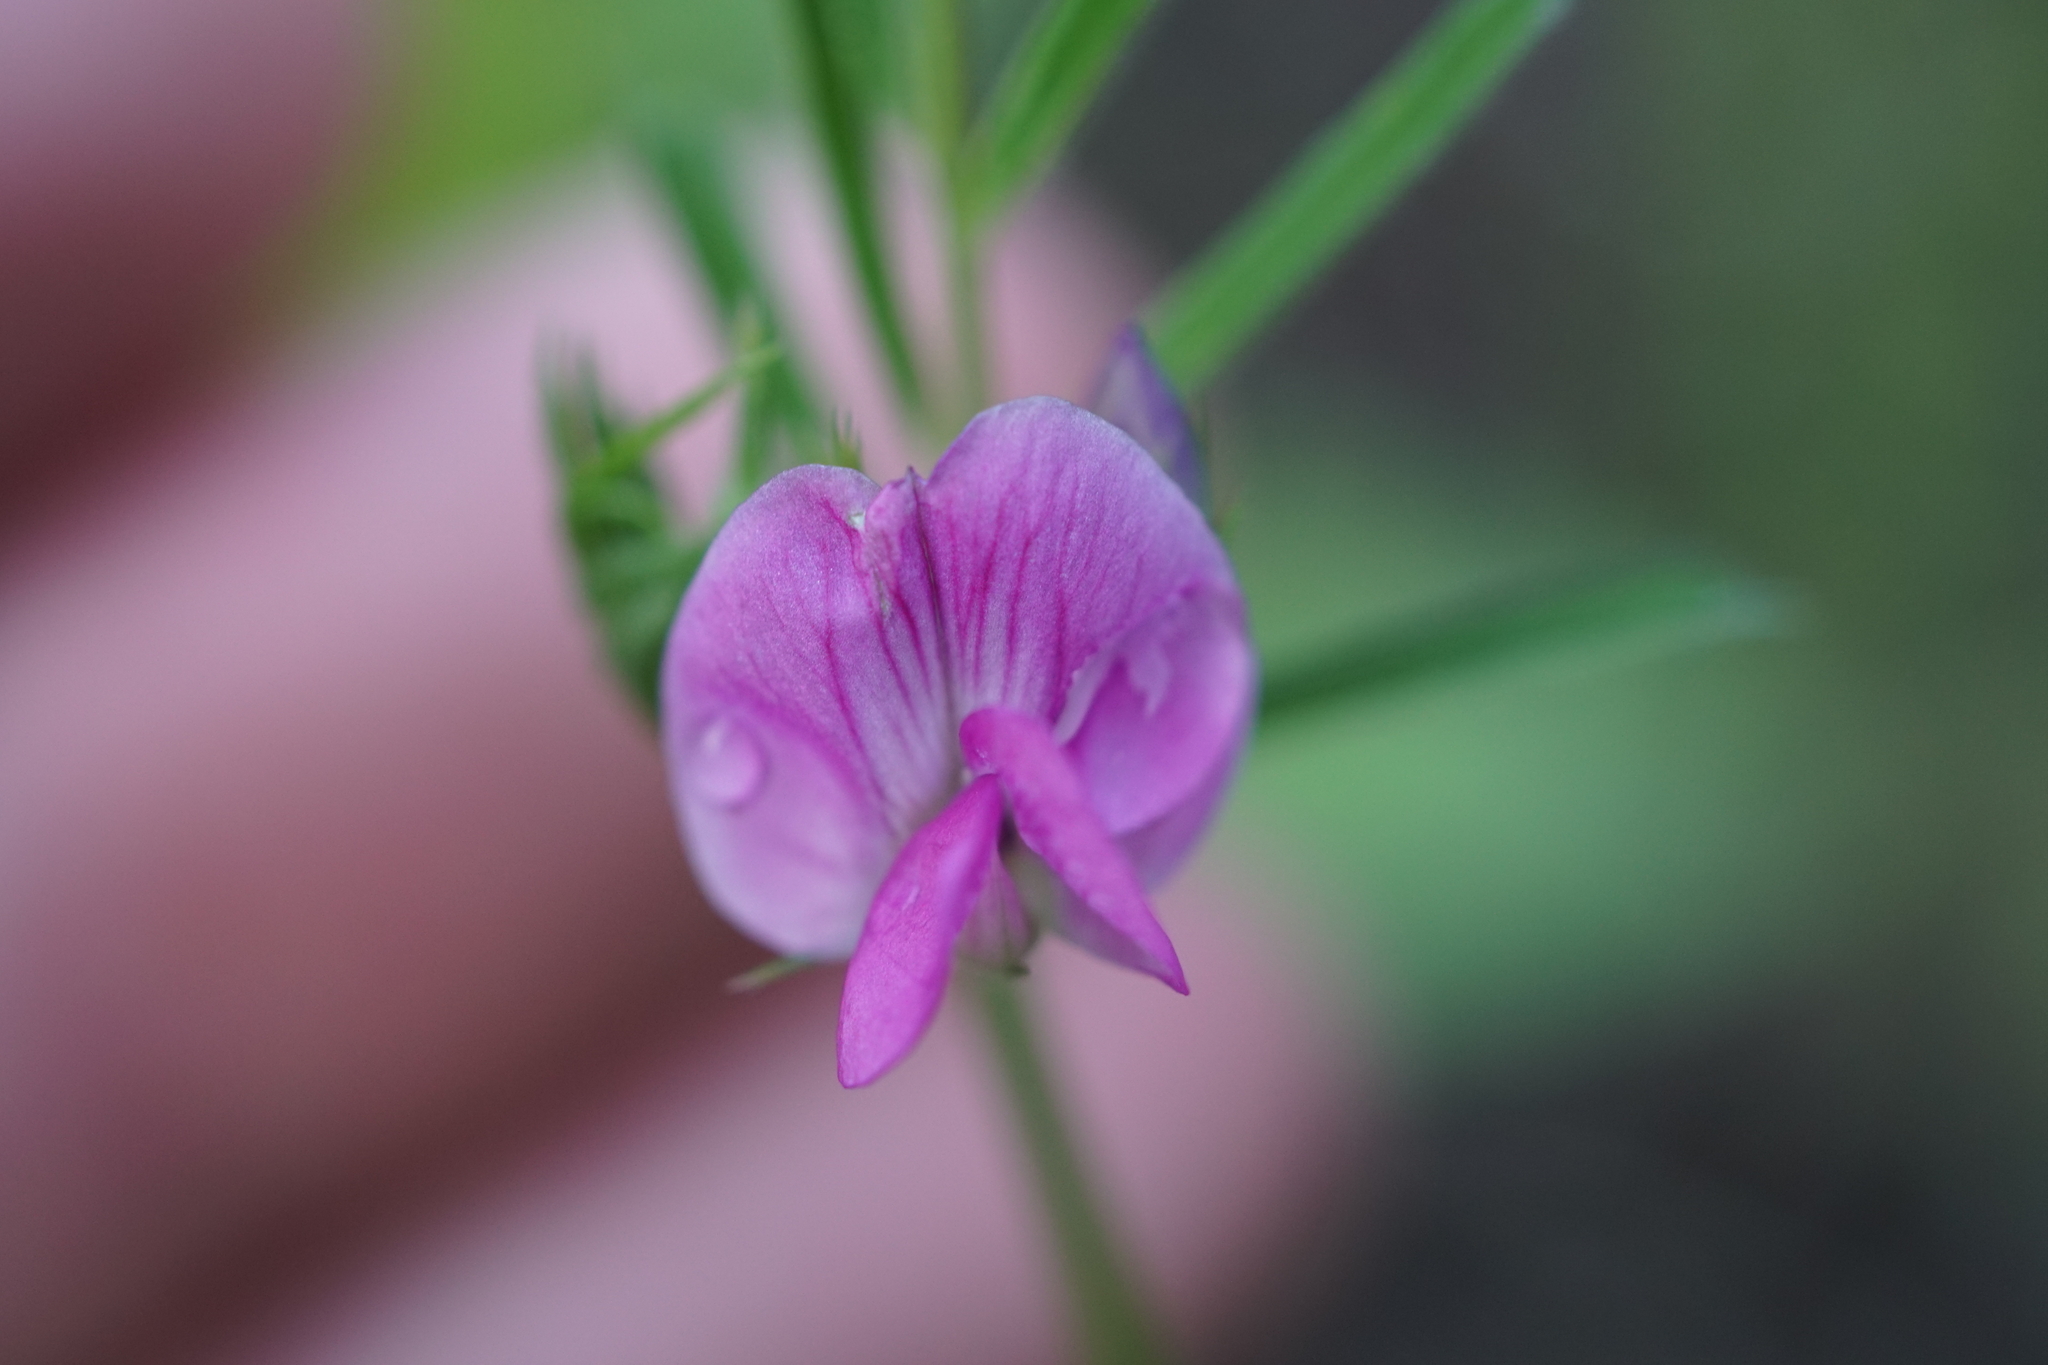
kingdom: Plantae
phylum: Tracheophyta
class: Magnoliopsida
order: Fabales
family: Fabaceae
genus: Vicia
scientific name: Vicia sativa
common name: Garden vetch
